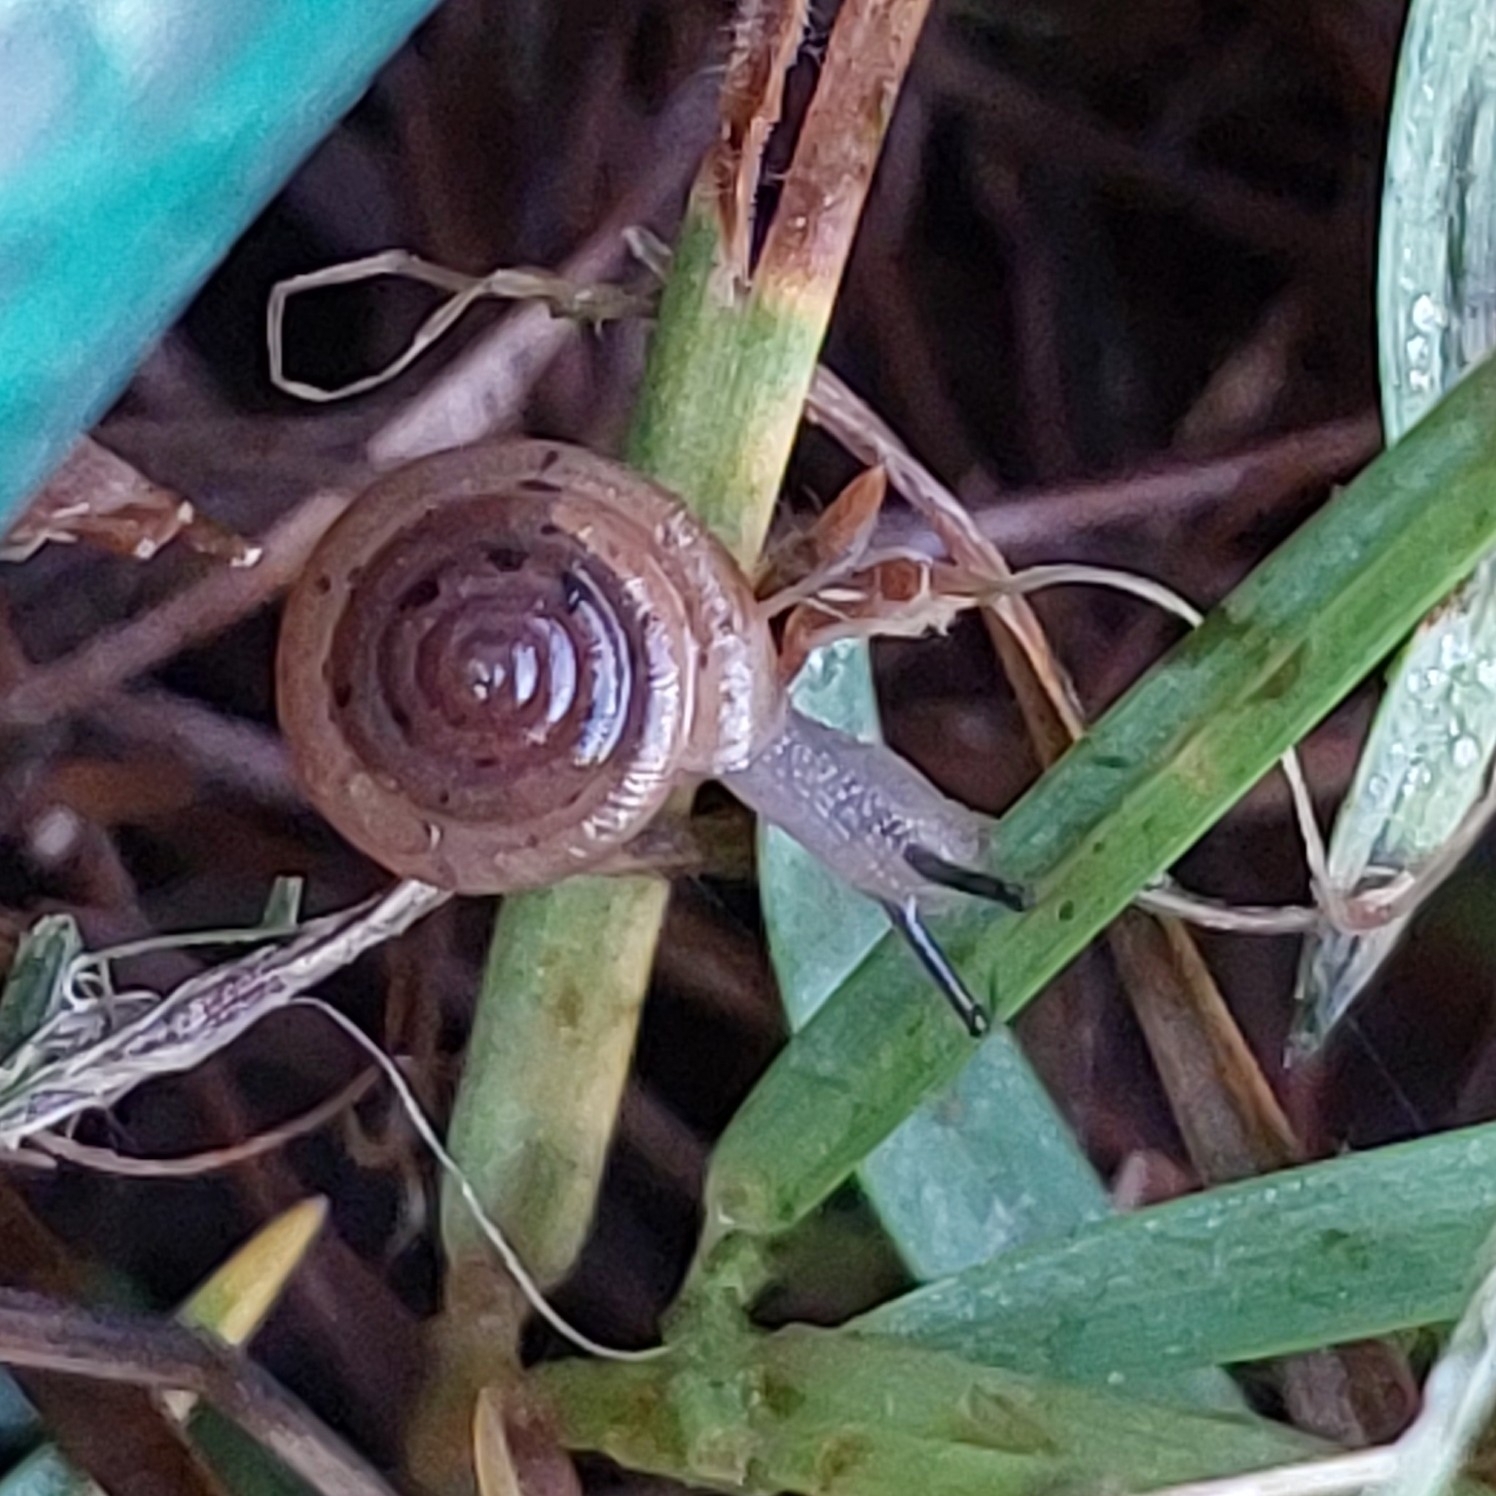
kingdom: Animalia
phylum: Mollusca
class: Gastropoda
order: Stylommatophora
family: Polygyridae
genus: Polygyra
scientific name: Polygyra cereolus
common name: Southern flatcone snail
